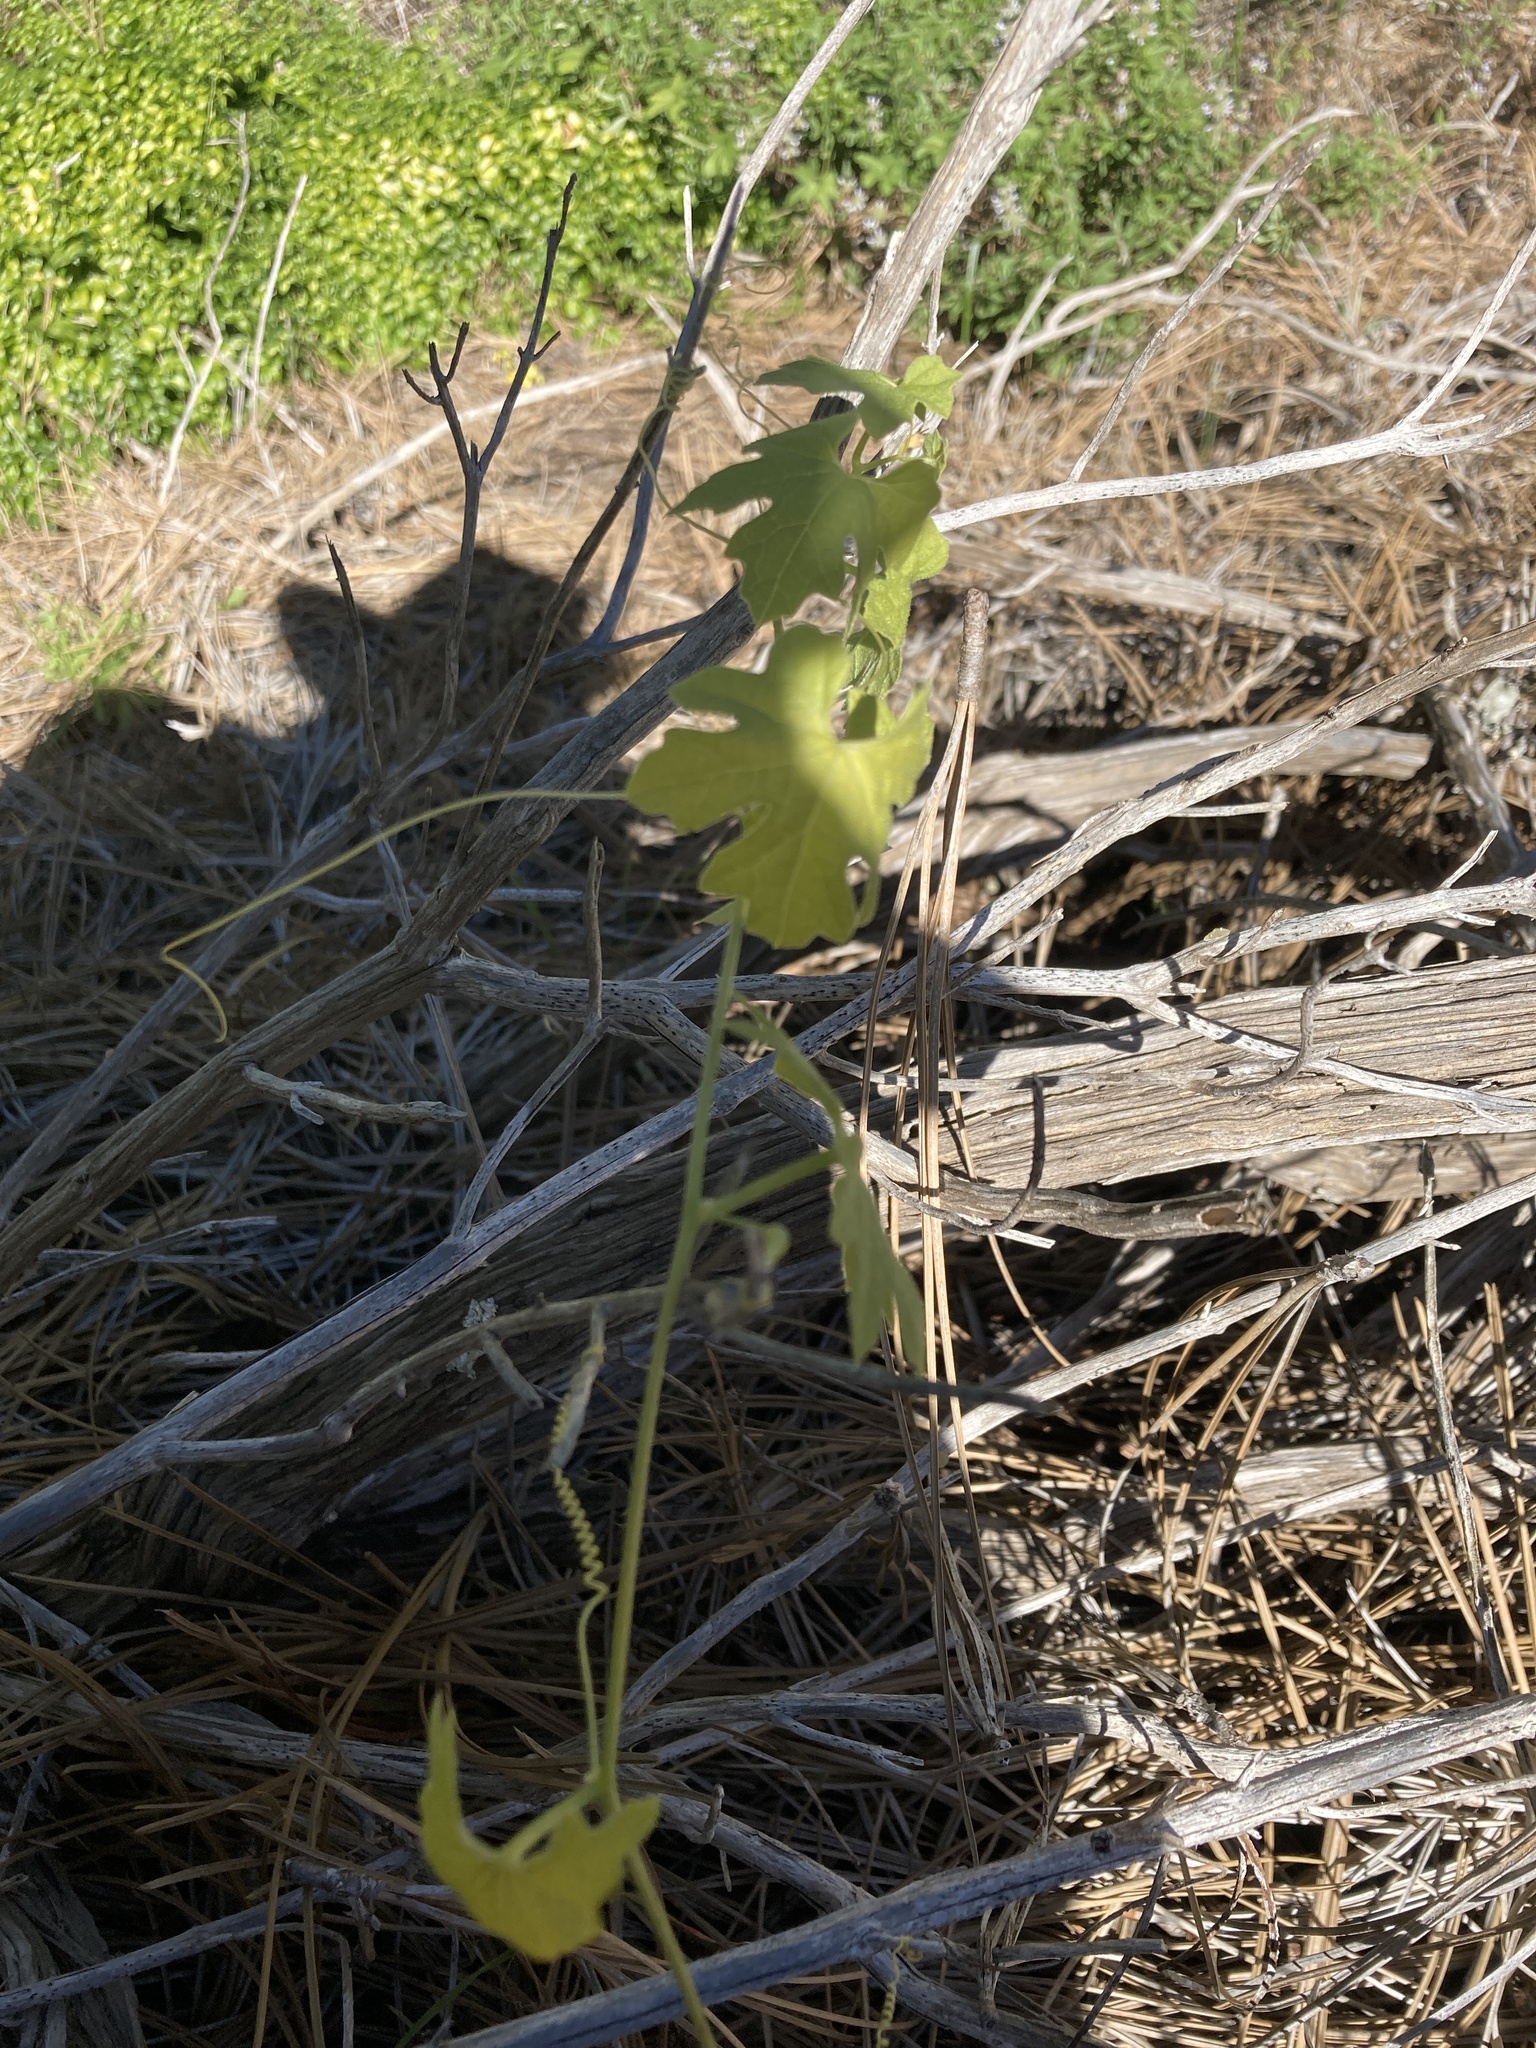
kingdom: Plantae
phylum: Tracheophyta
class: Magnoliopsida
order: Cucurbitales
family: Cucurbitaceae
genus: Marah
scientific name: Marah macrocarpa
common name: Cucamonga manroot
